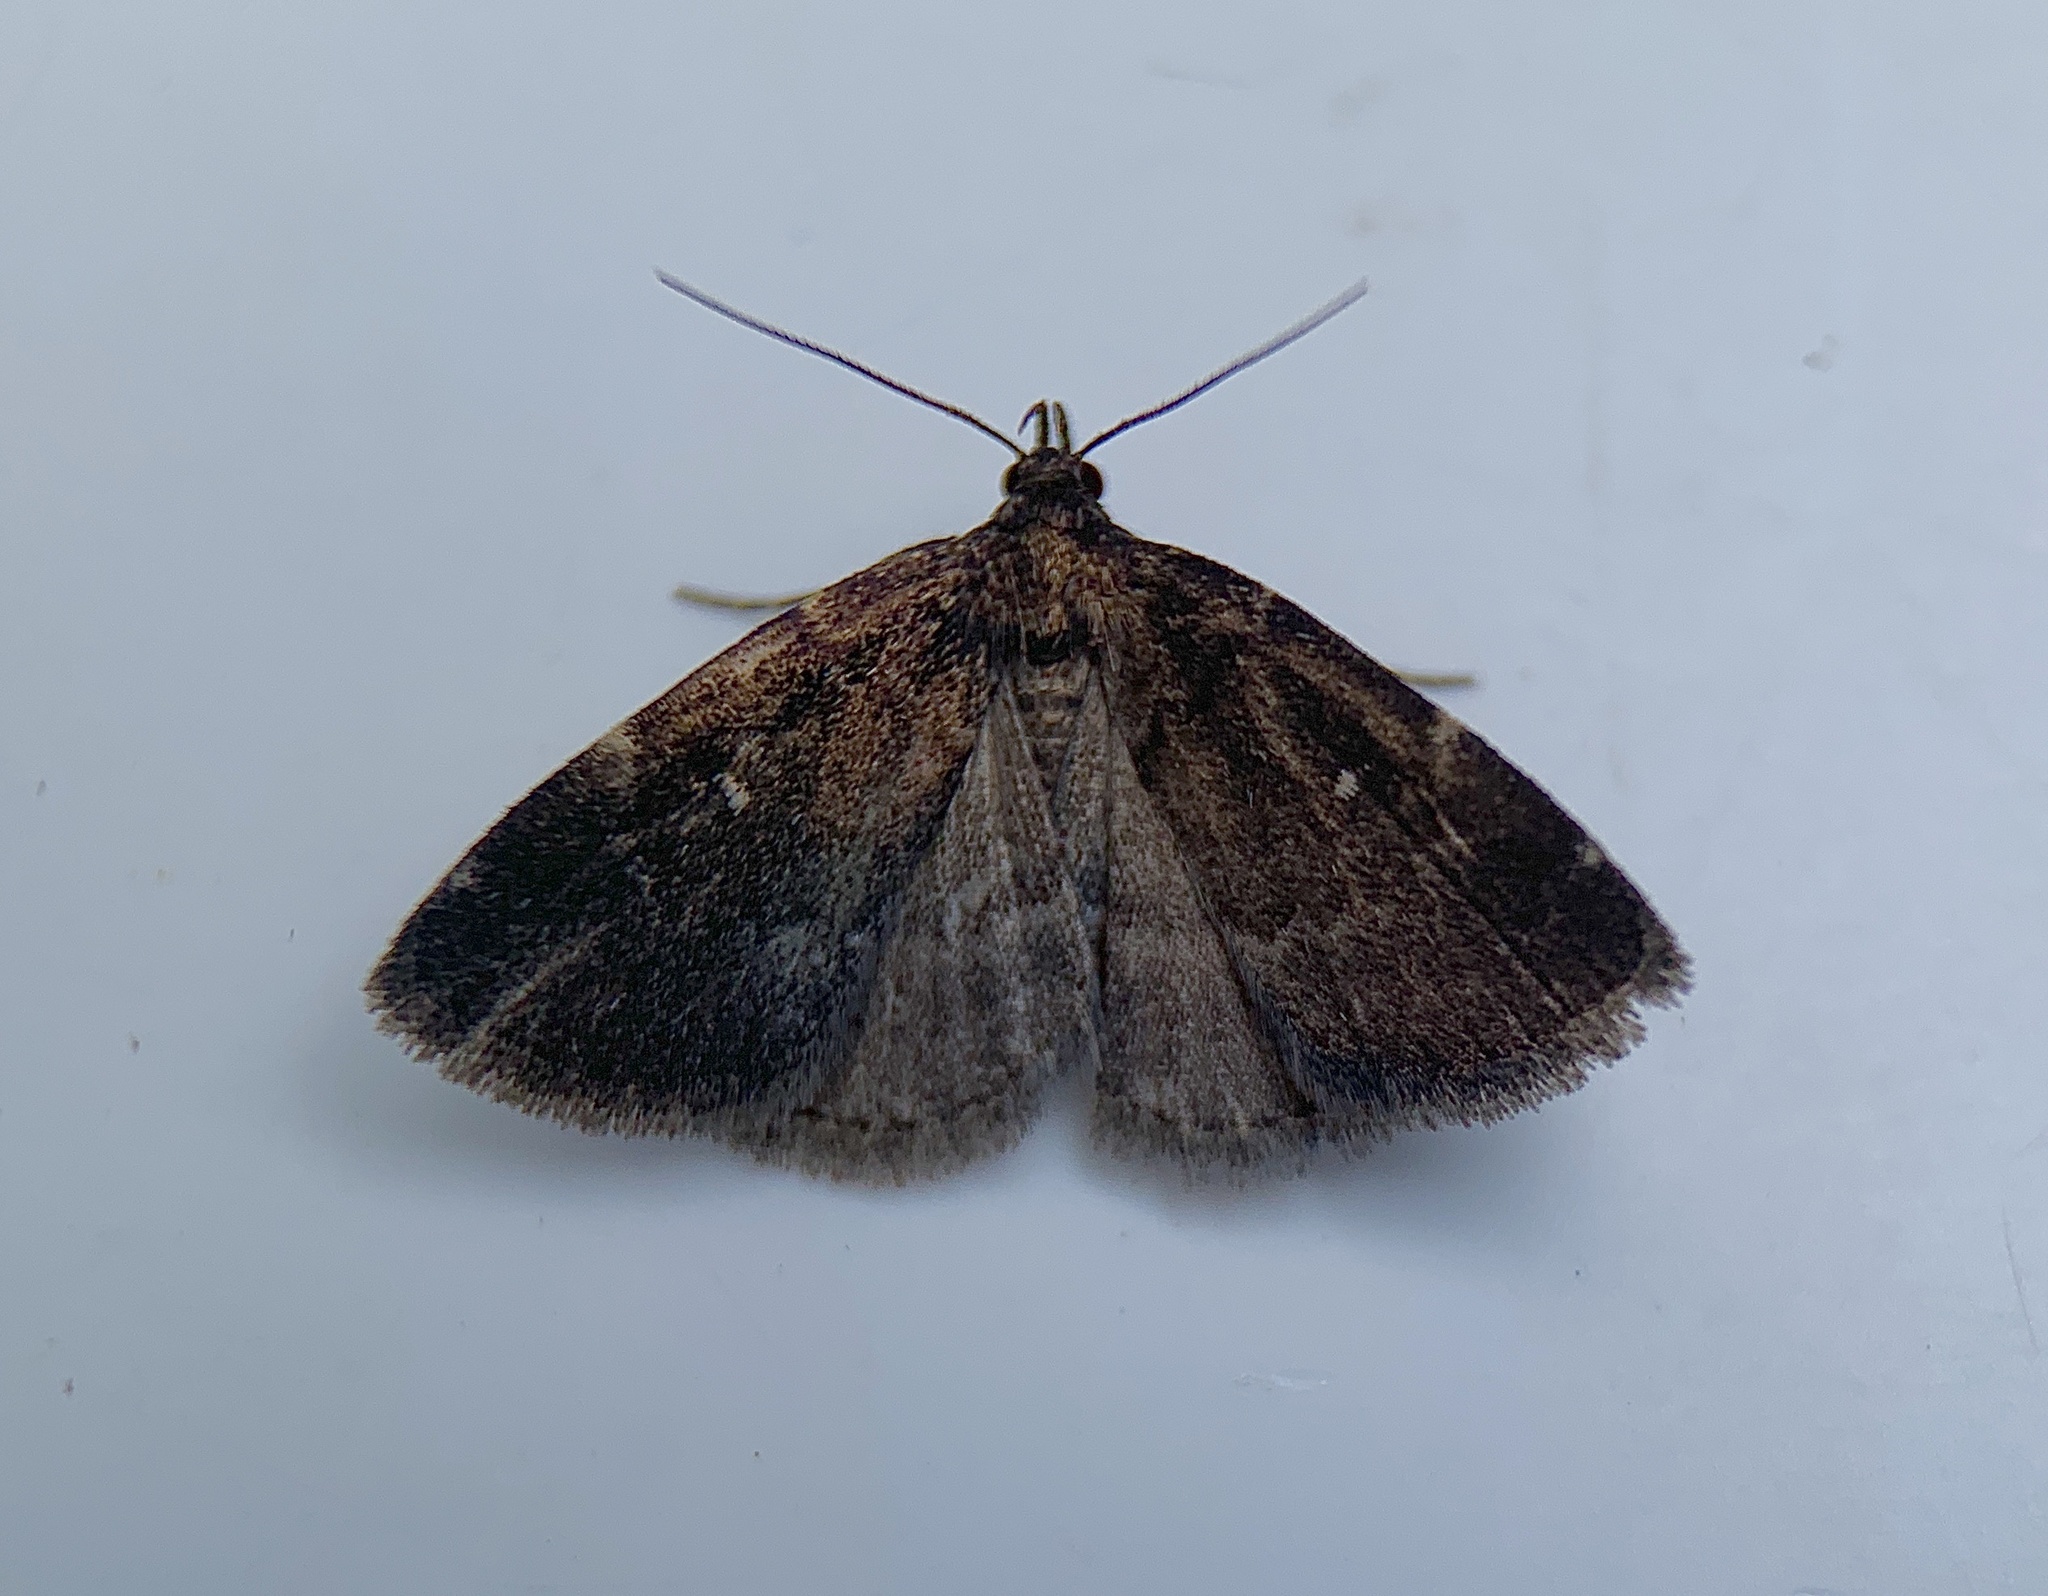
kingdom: Animalia
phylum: Arthropoda
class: Insecta
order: Lepidoptera
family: Erebidae
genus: Idia
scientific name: Idia julia
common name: Julia's idia moth
